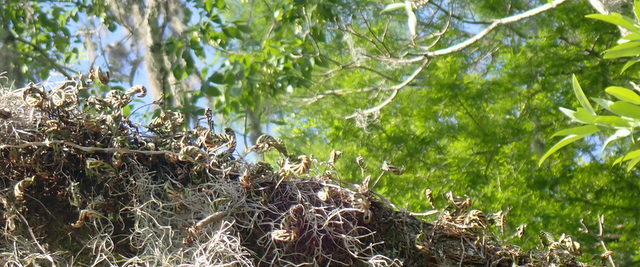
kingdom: Plantae
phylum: Tracheophyta
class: Polypodiopsida
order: Polypodiales
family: Polypodiaceae
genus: Pleopeltis
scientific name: Pleopeltis michauxiana
